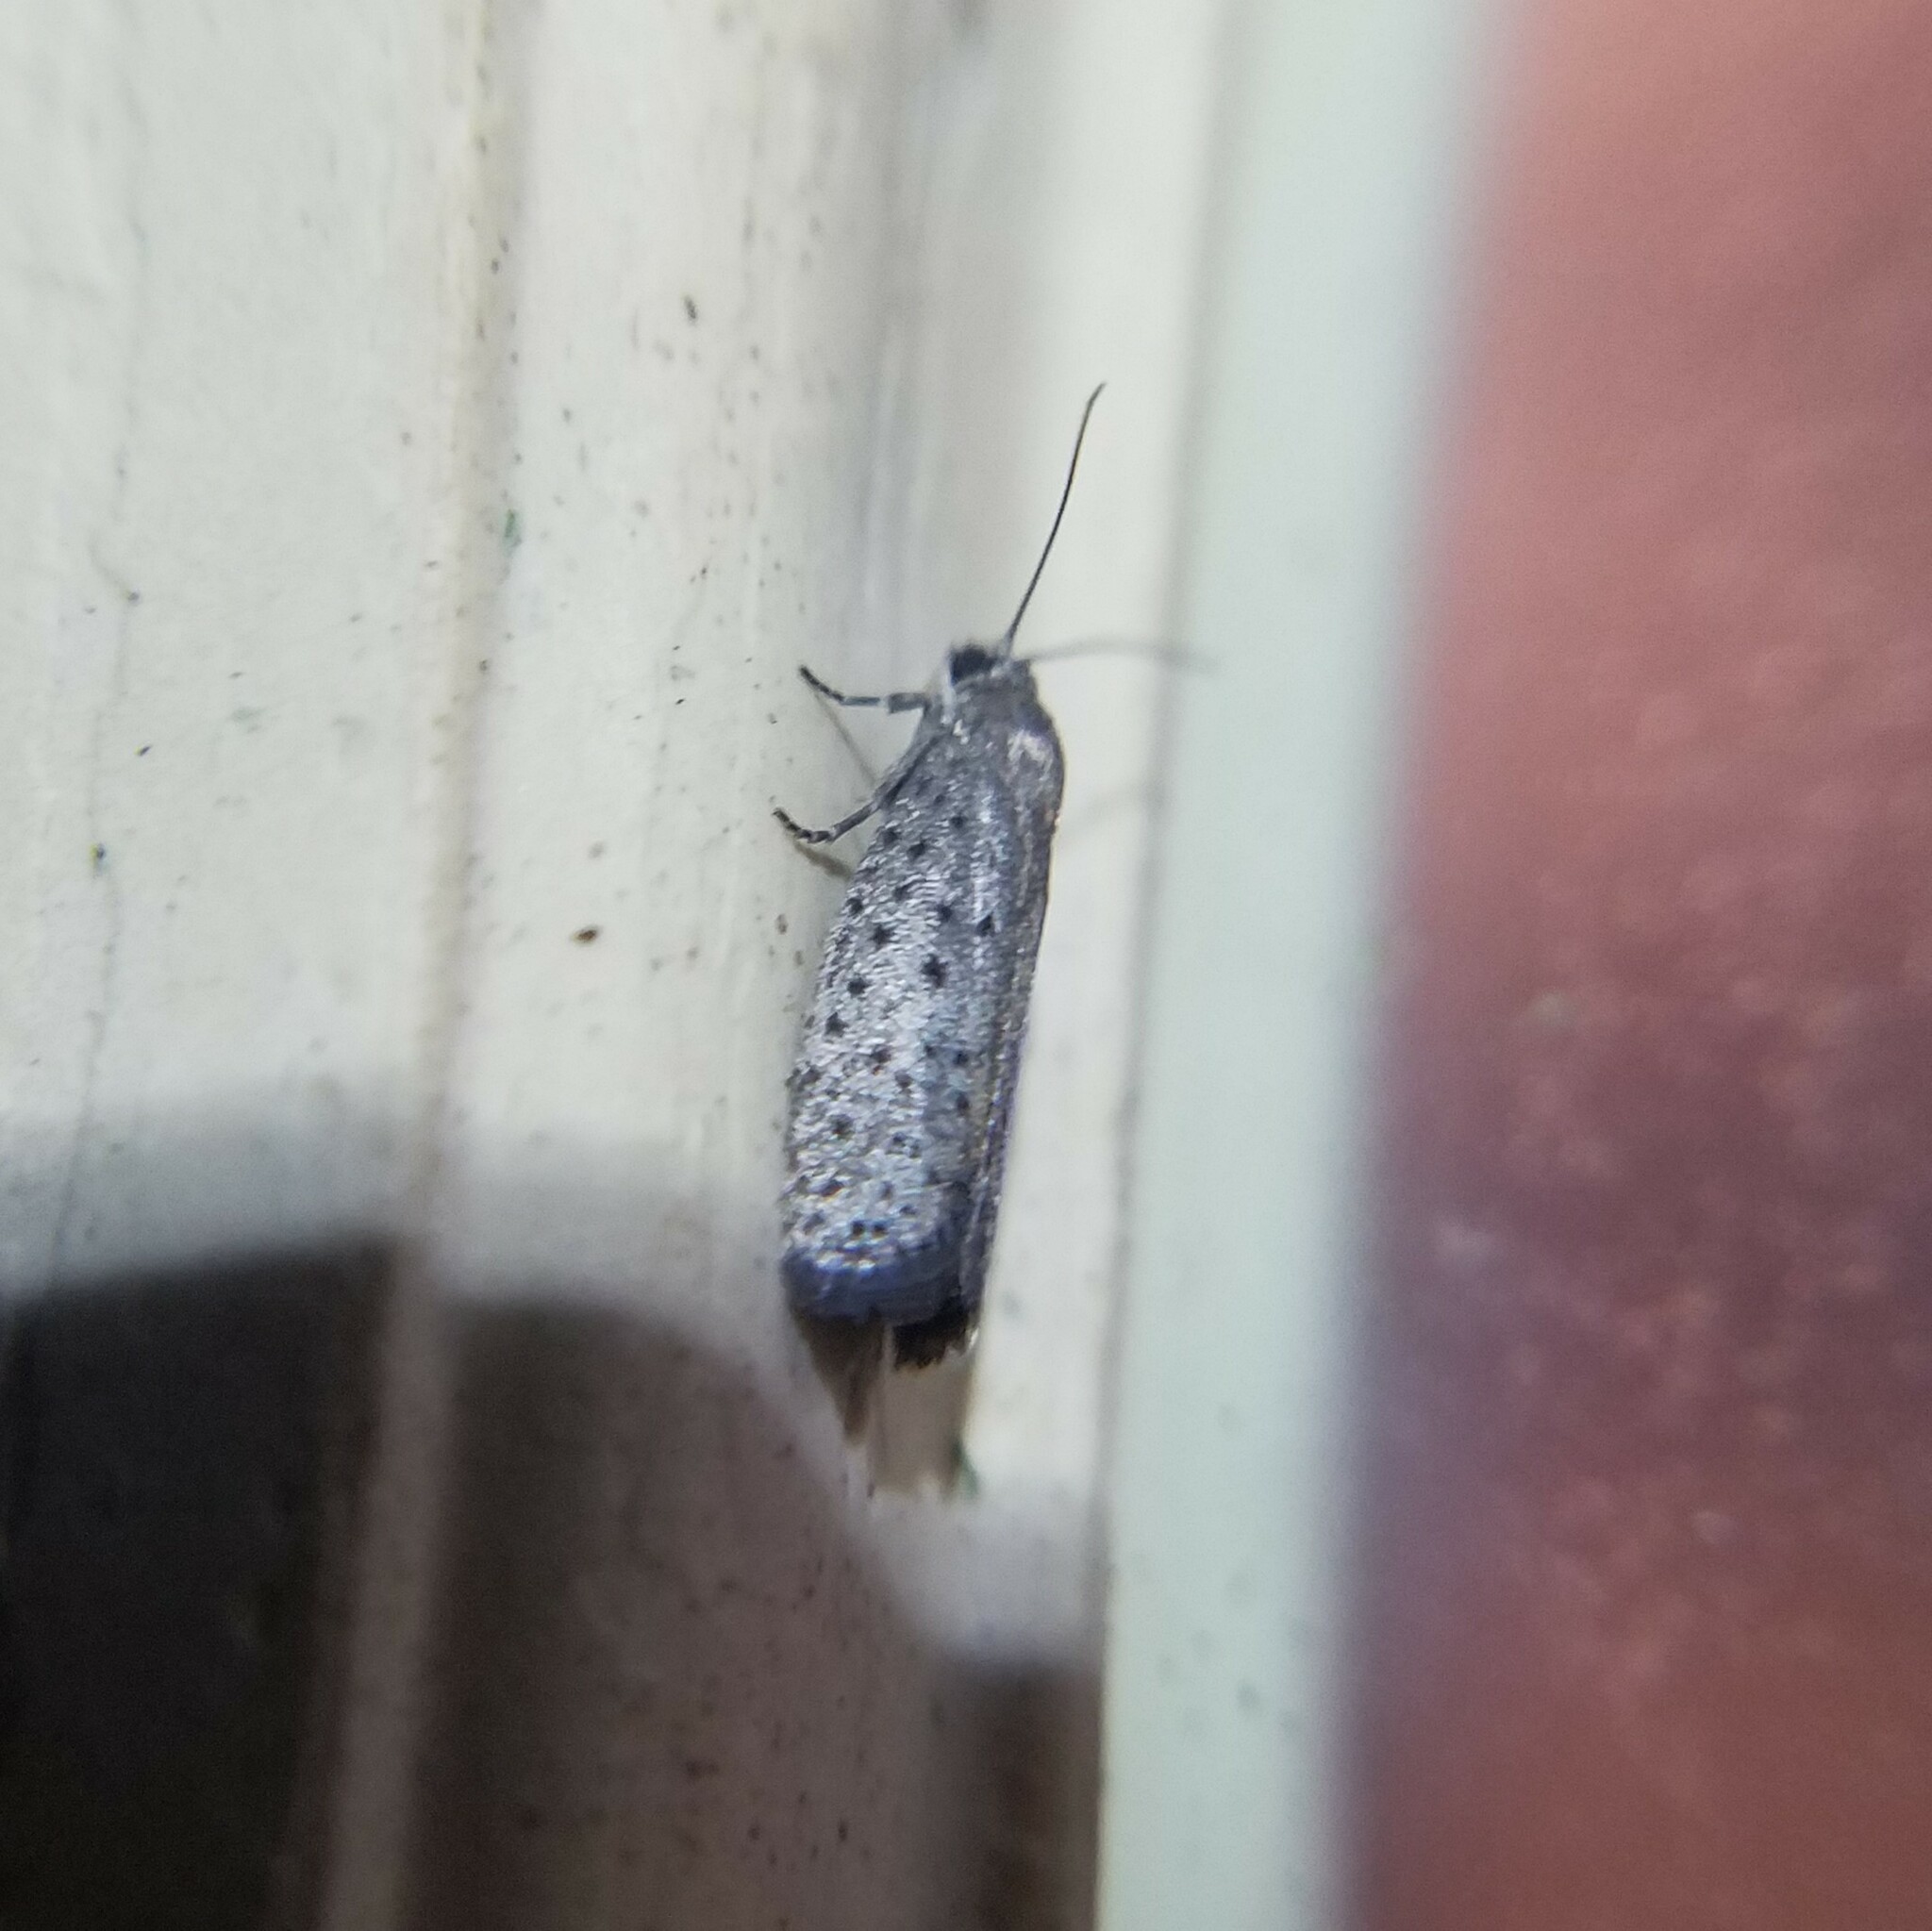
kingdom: Animalia
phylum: Arthropoda
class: Insecta
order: Lepidoptera
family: Galacticidae
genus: Homadaula
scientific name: Homadaula anisocentra
